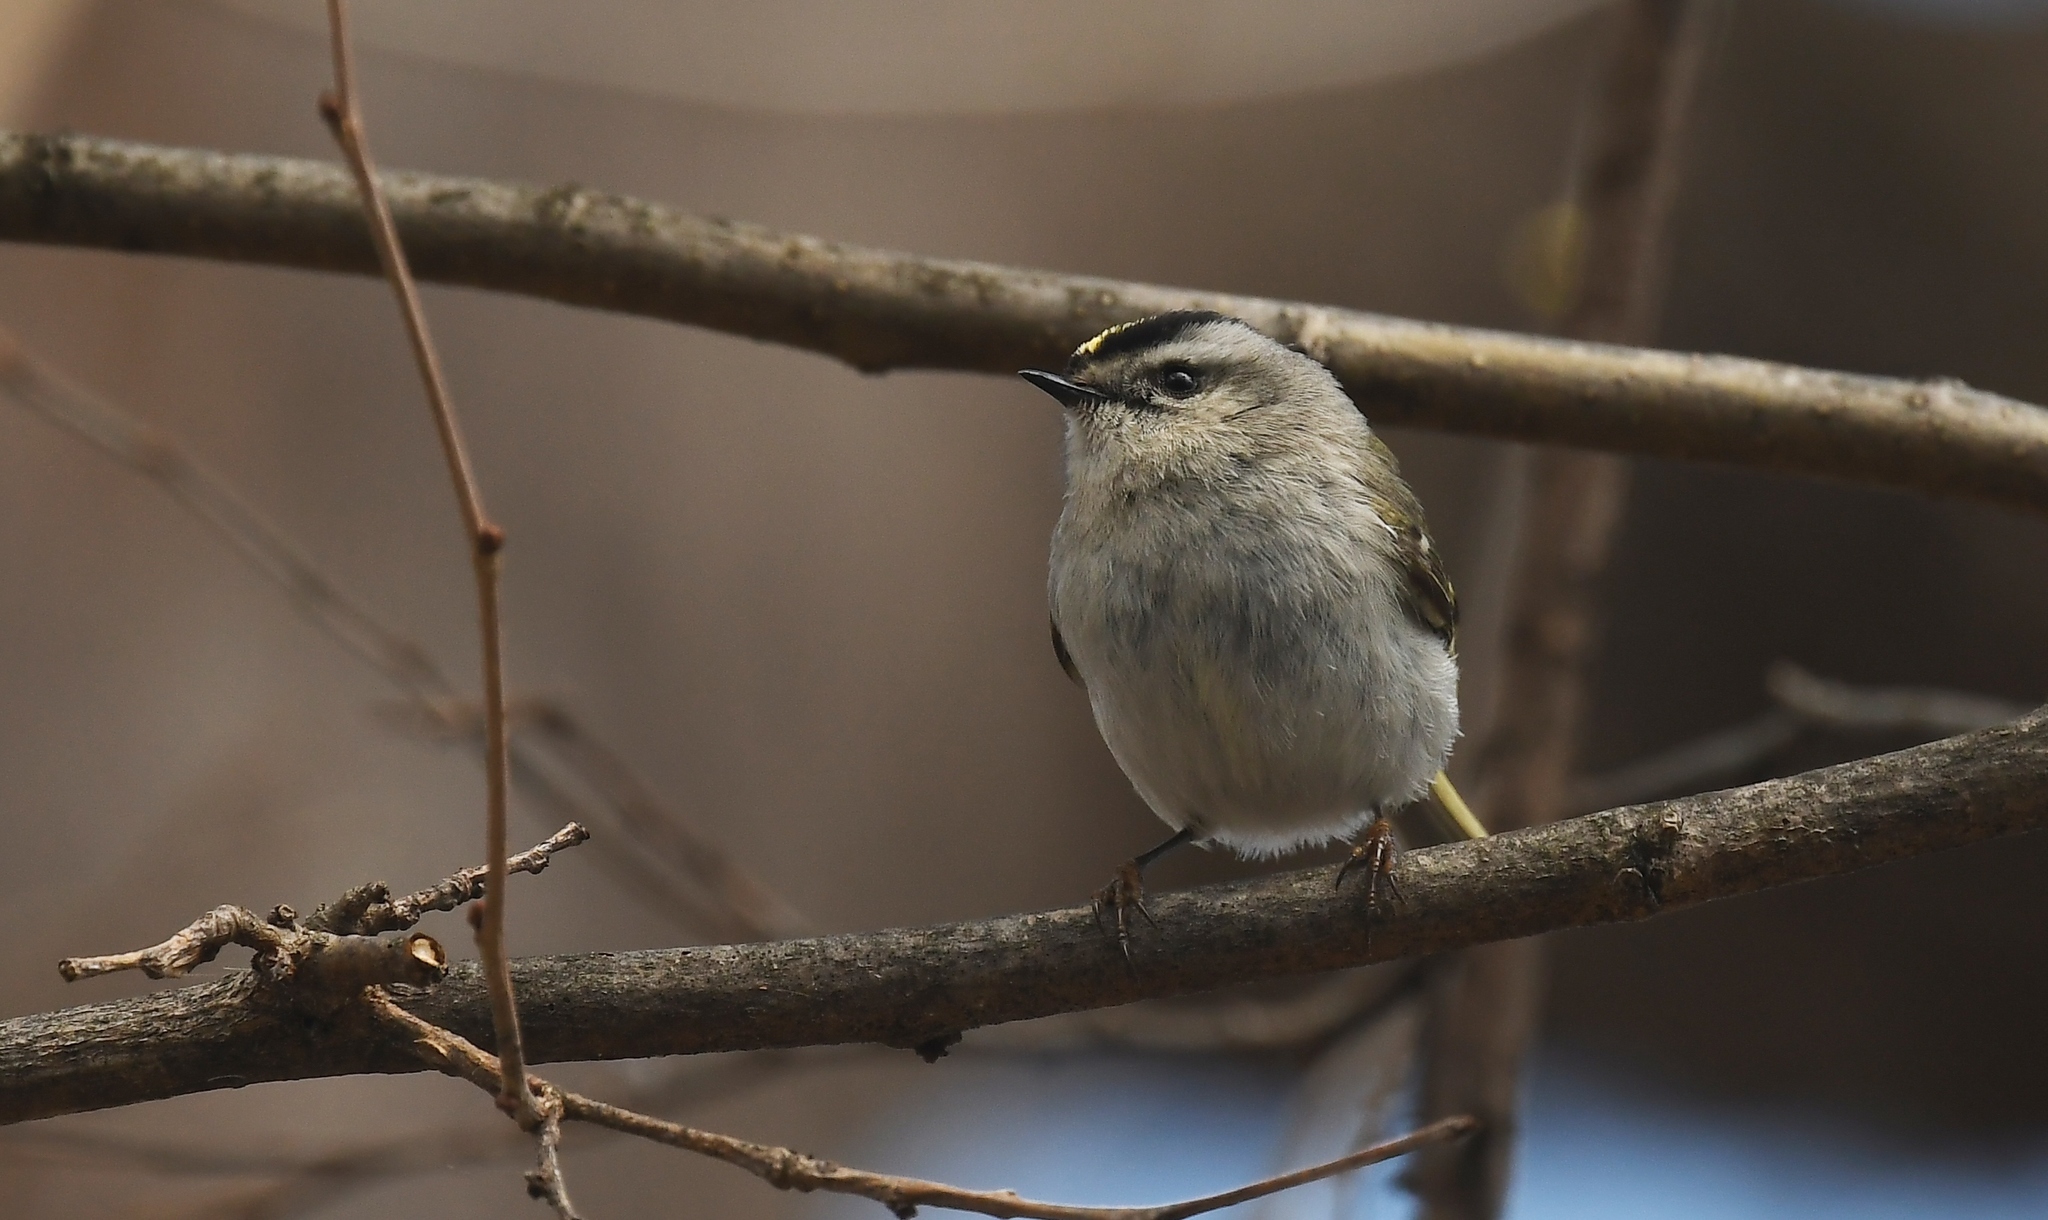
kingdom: Animalia
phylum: Chordata
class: Aves
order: Passeriformes
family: Regulidae
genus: Regulus
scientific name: Regulus satrapa
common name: Golden-crowned kinglet
